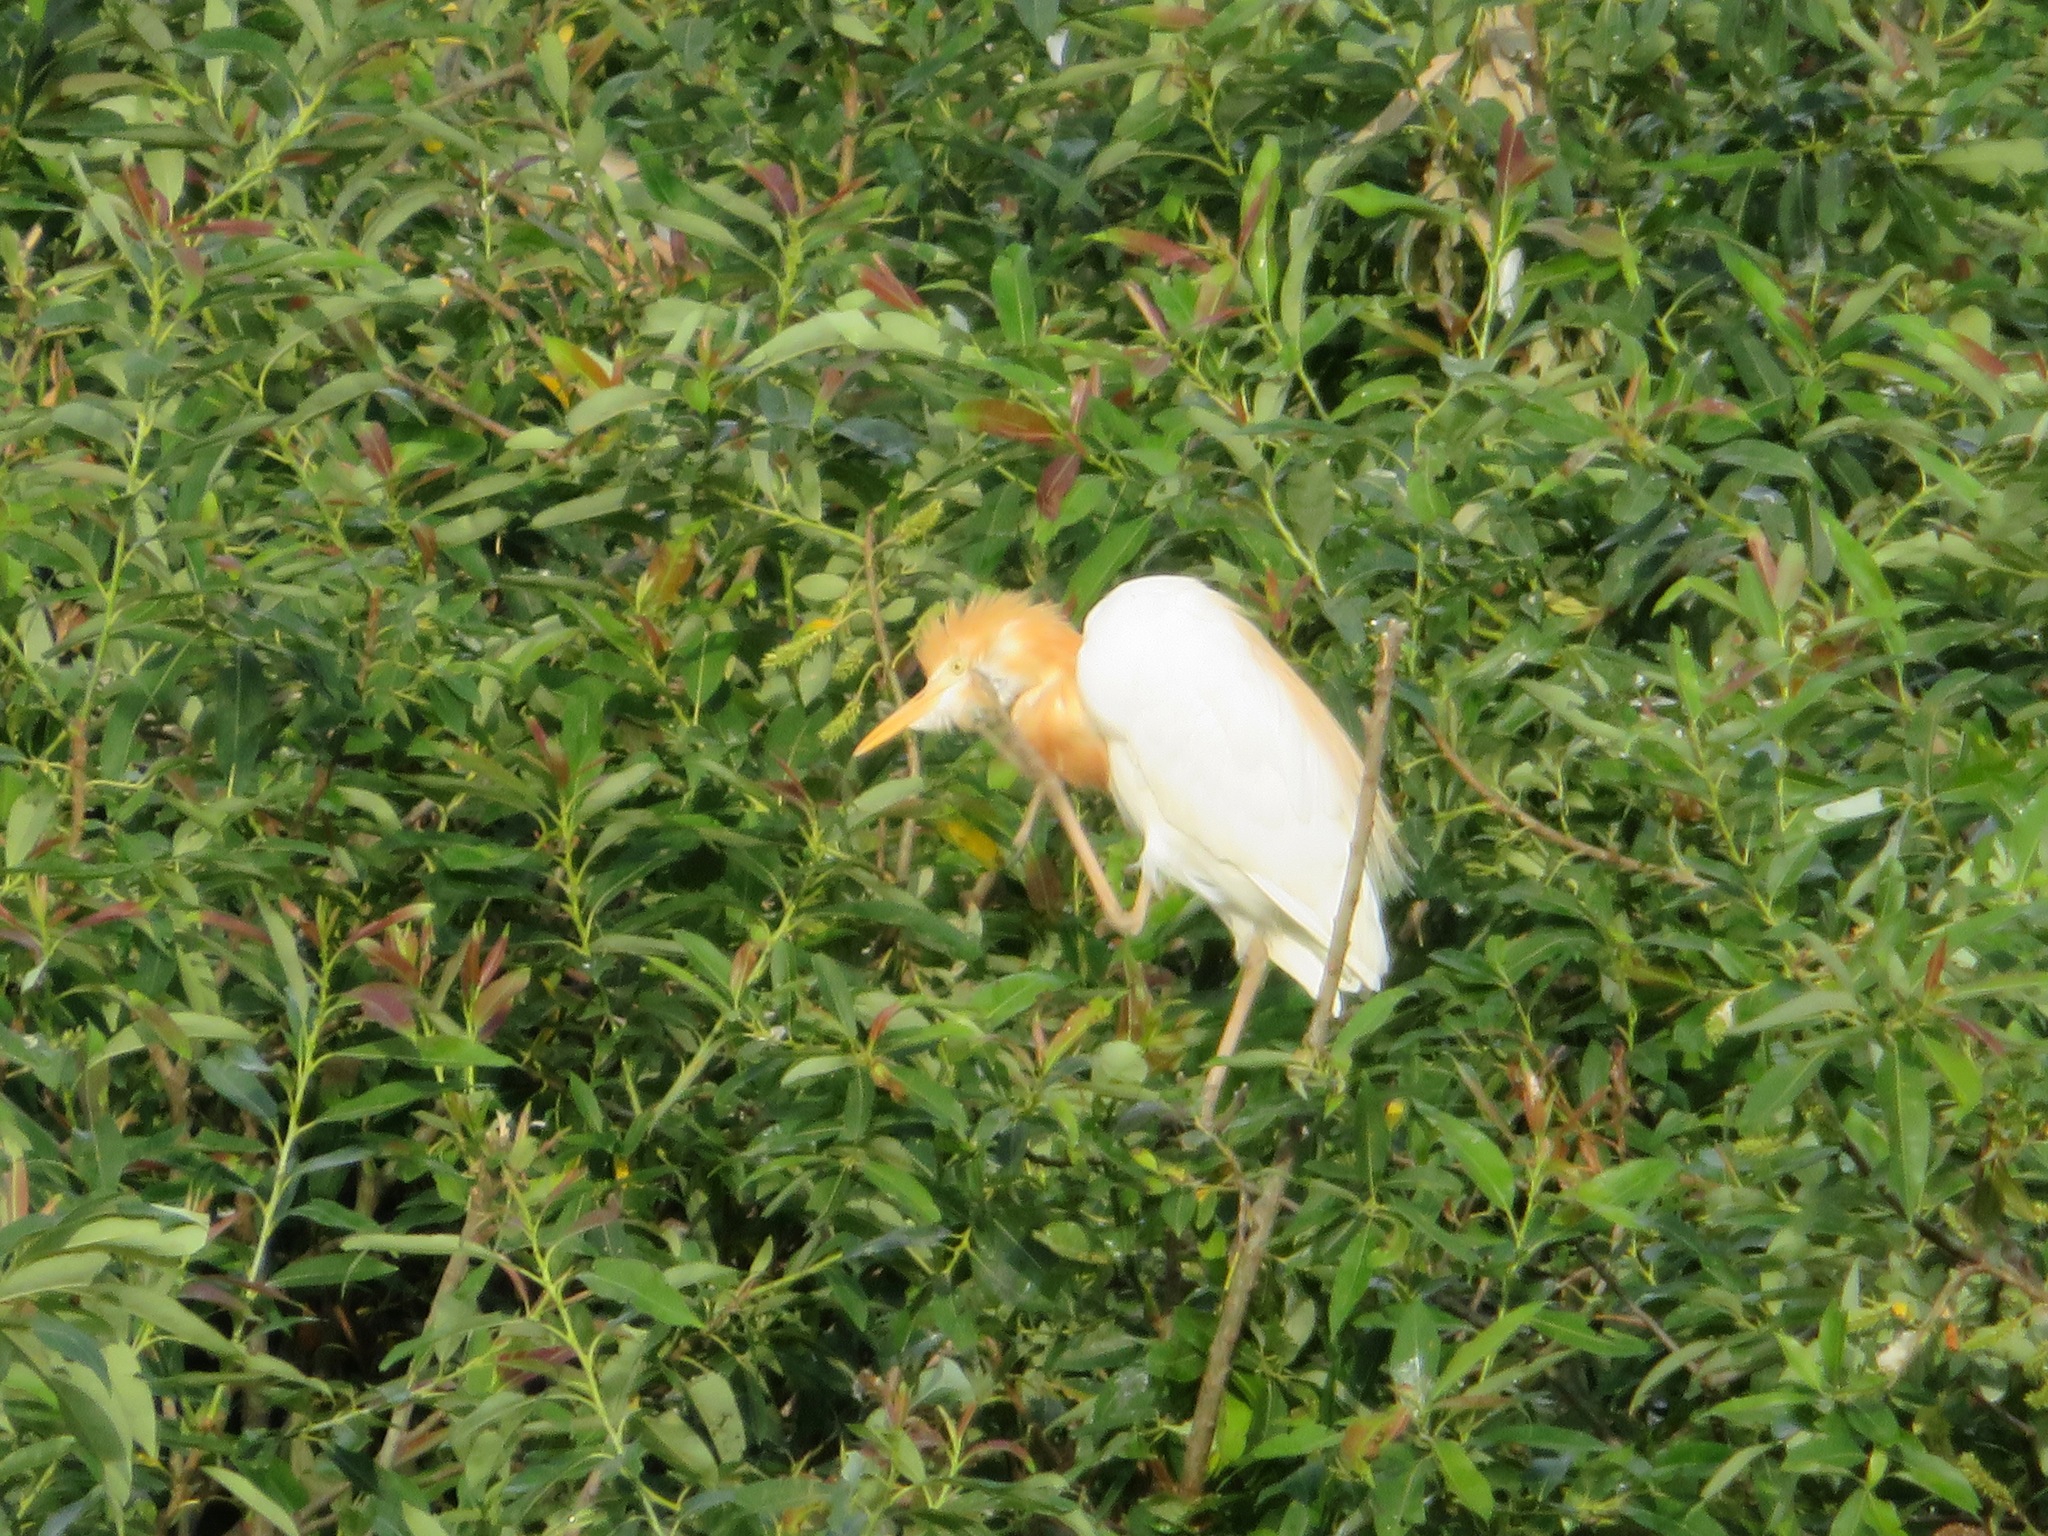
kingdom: Animalia
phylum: Chordata
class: Aves
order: Pelecaniformes
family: Ardeidae
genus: Bubulcus
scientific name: Bubulcus coromandus
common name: Eastern cattle egret
